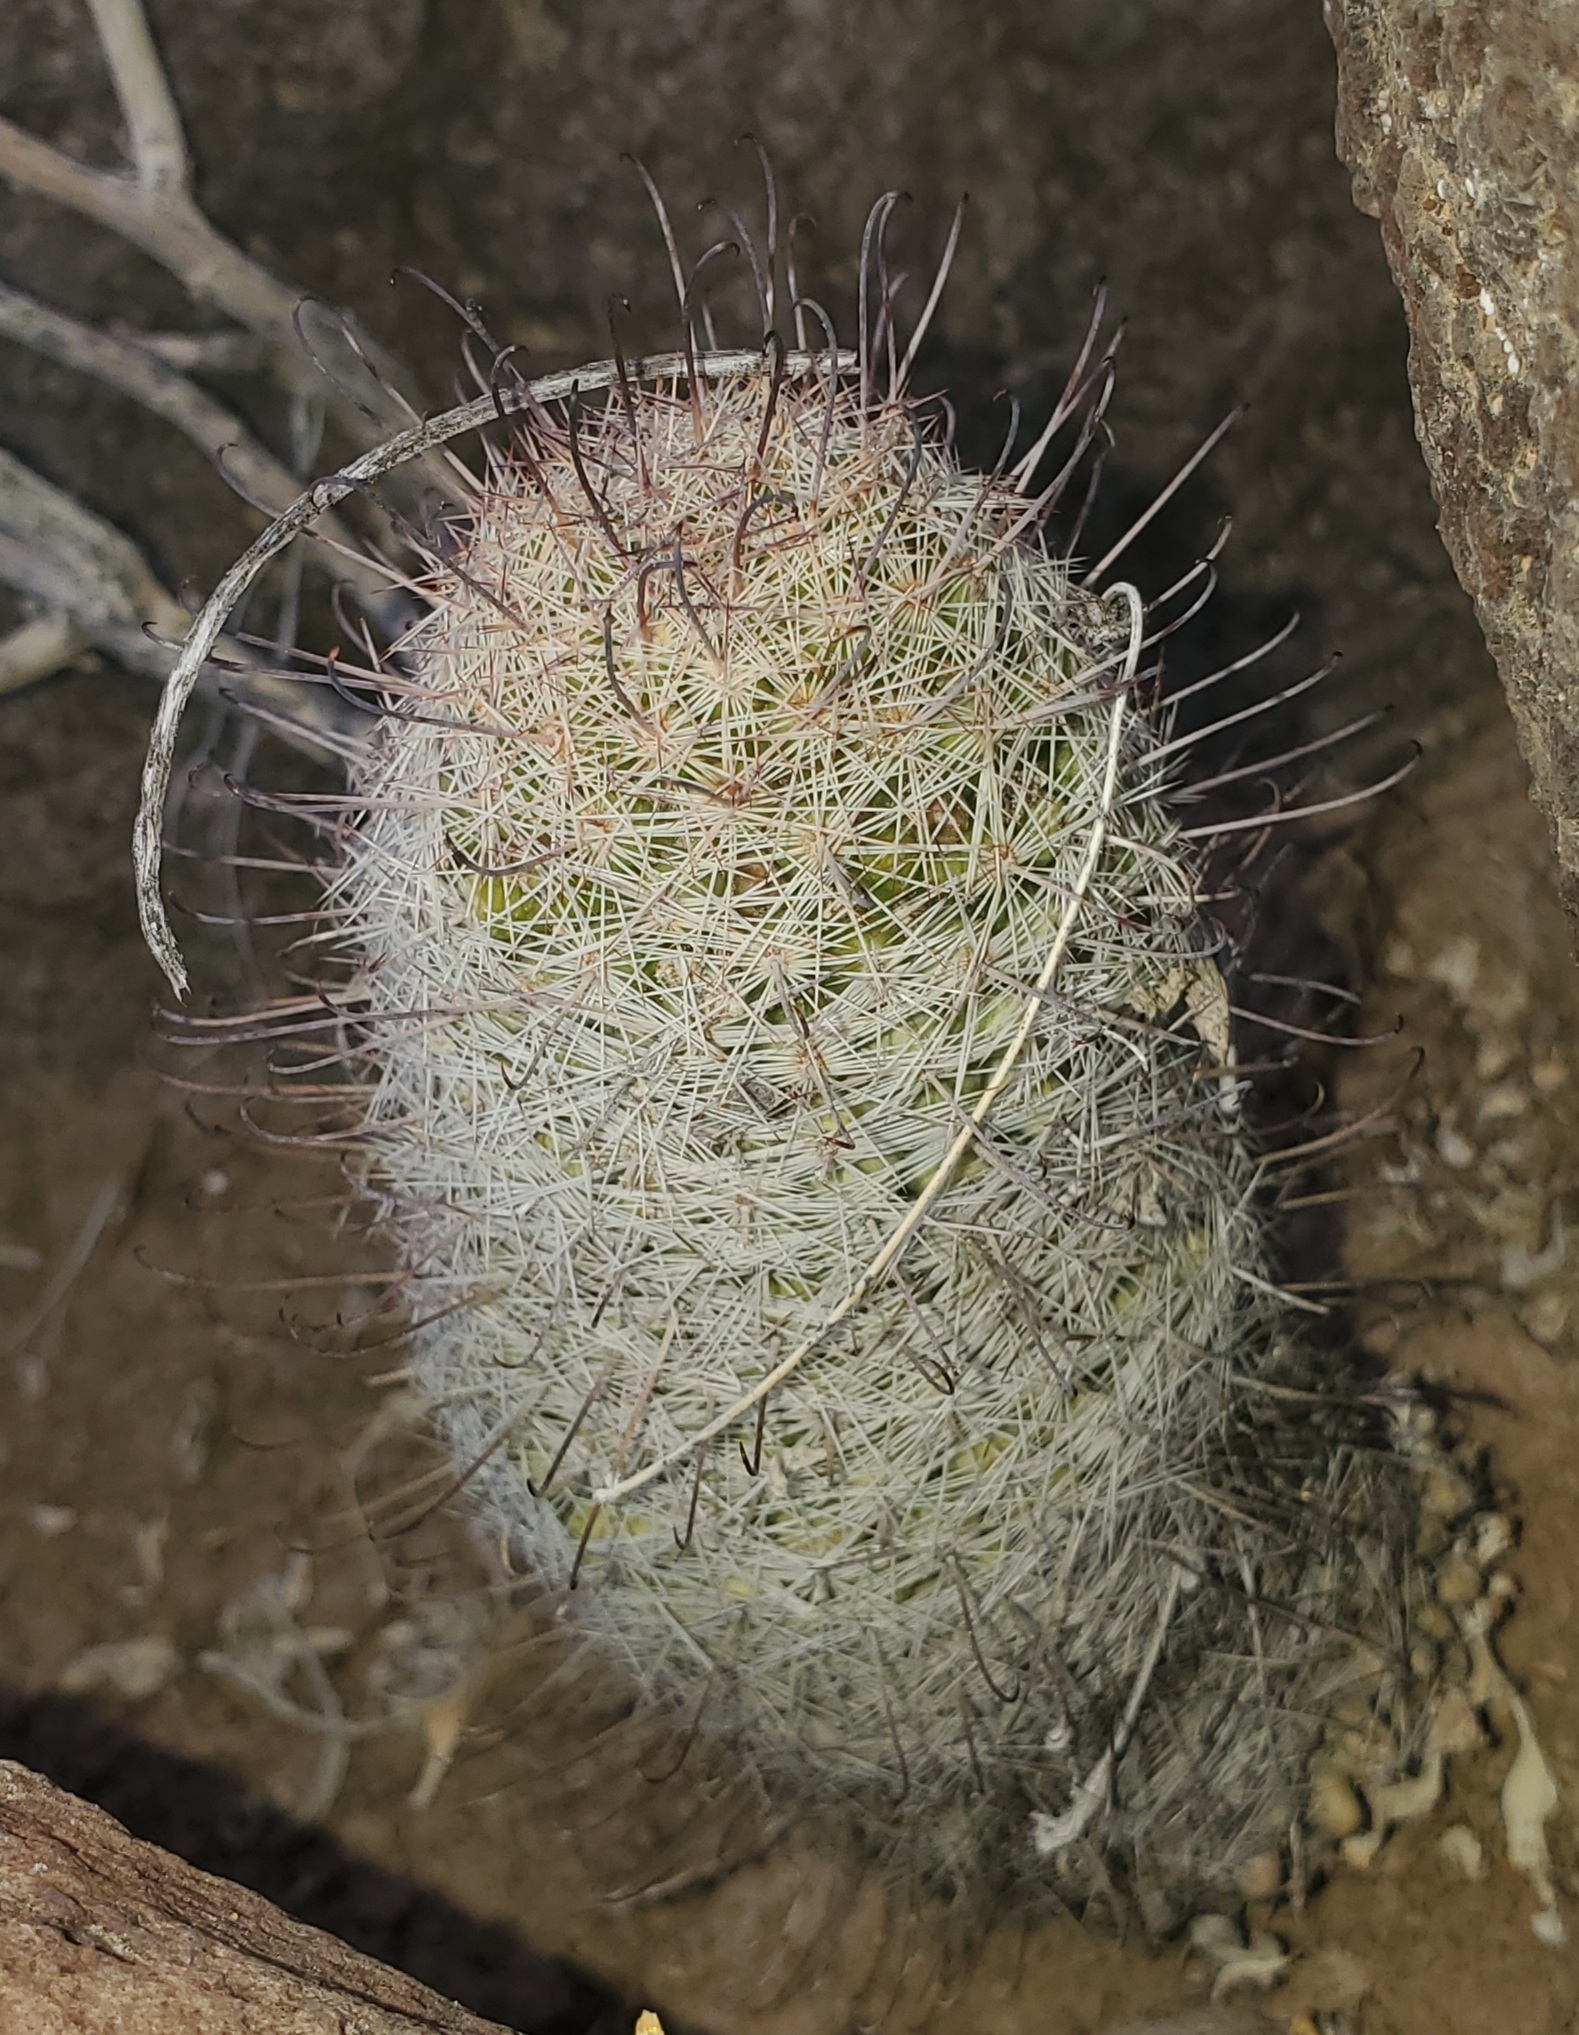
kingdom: Plantae
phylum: Tracheophyta
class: Magnoliopsida
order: Caryophyllales
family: Cactaceae
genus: Cochemiea
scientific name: Cochemiea grahamii
